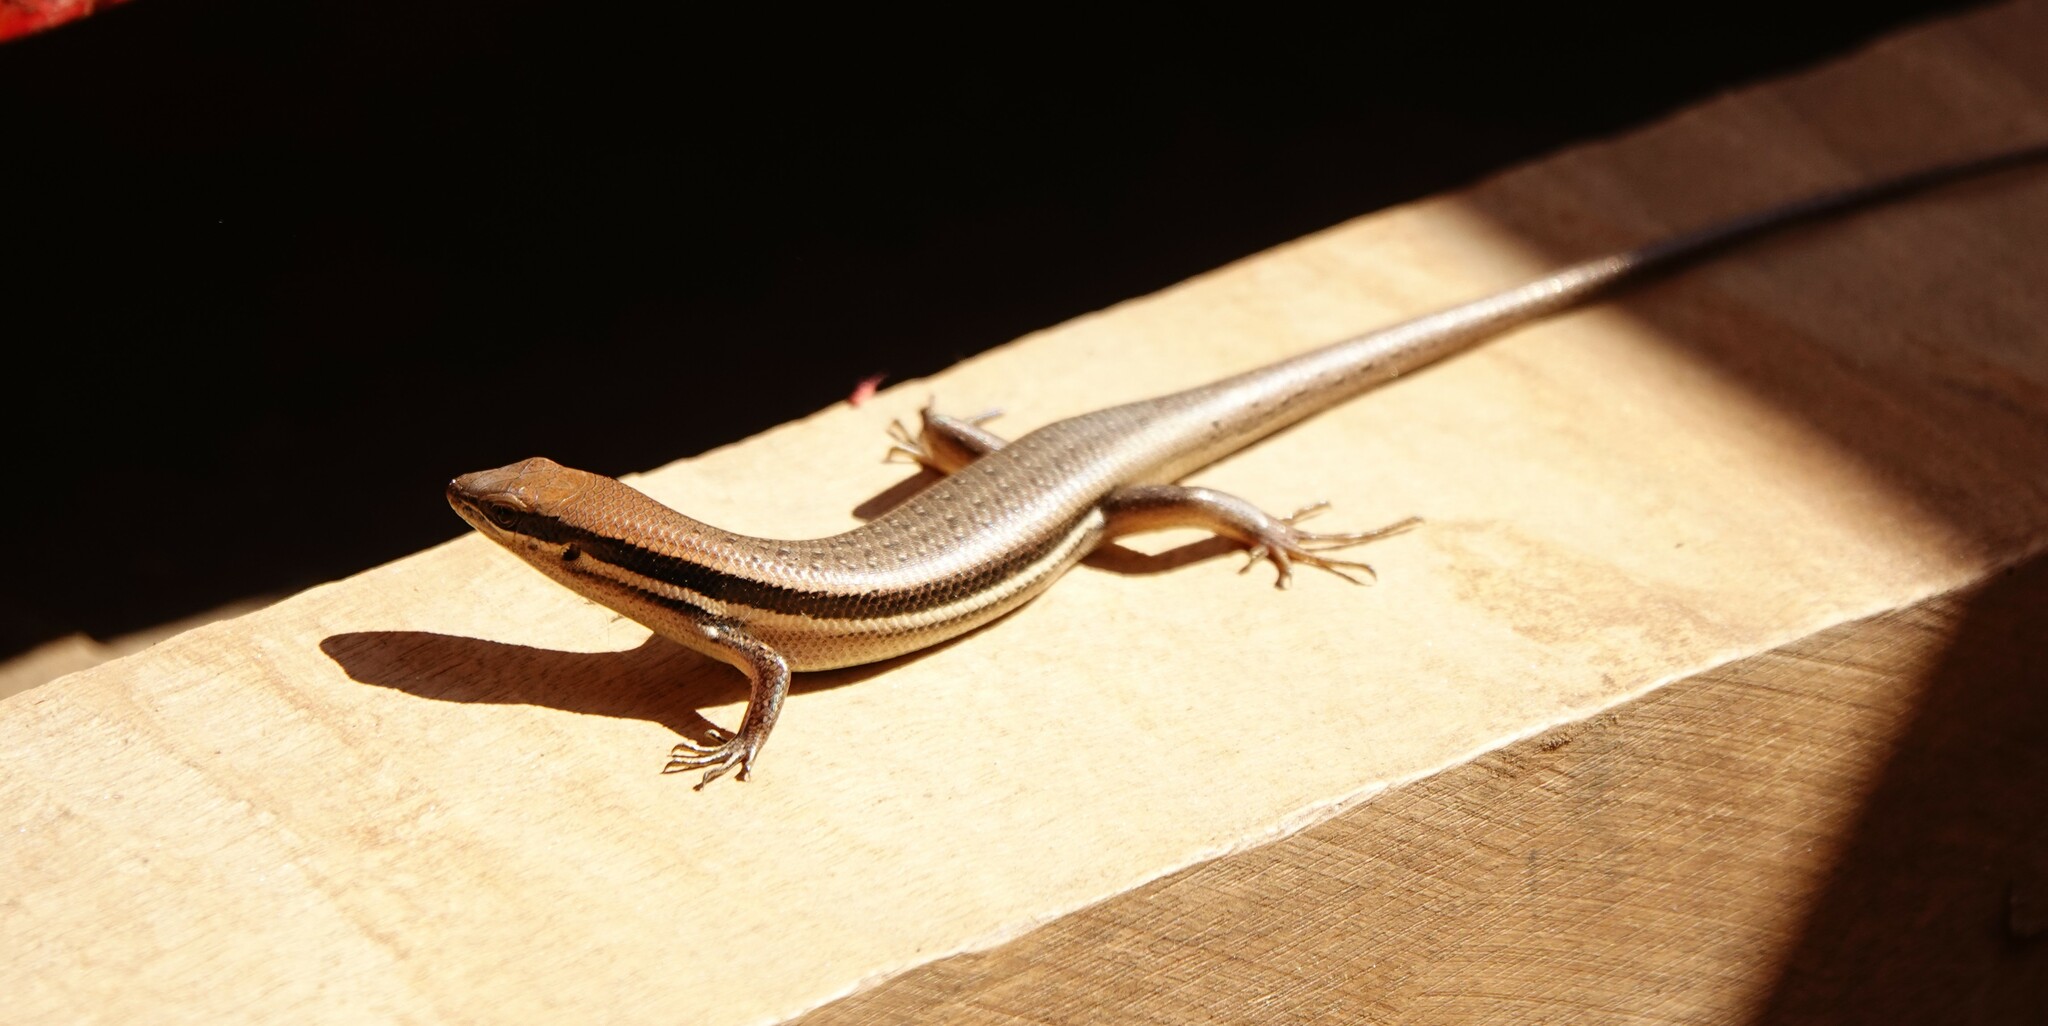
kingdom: Animalia
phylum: Chordata
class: Squamata
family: Scincidae
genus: Trachylepis
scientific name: Trachylepis gravenhorstii
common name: Gravenhorst's mabuya
